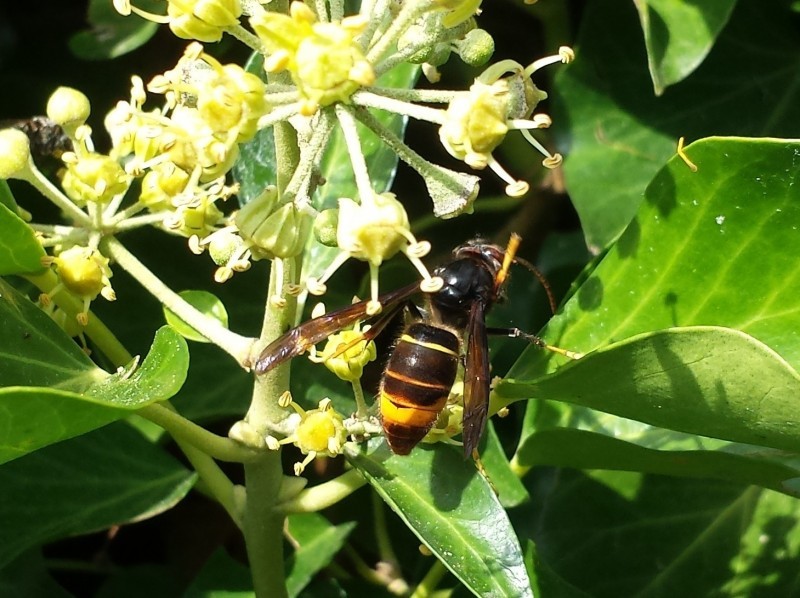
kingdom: Animalia
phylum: Arthropoda
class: Insecta
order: Hymenoptera
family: Vespidae
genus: Vespa
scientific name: Vespa velutina
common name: Asian hornet
